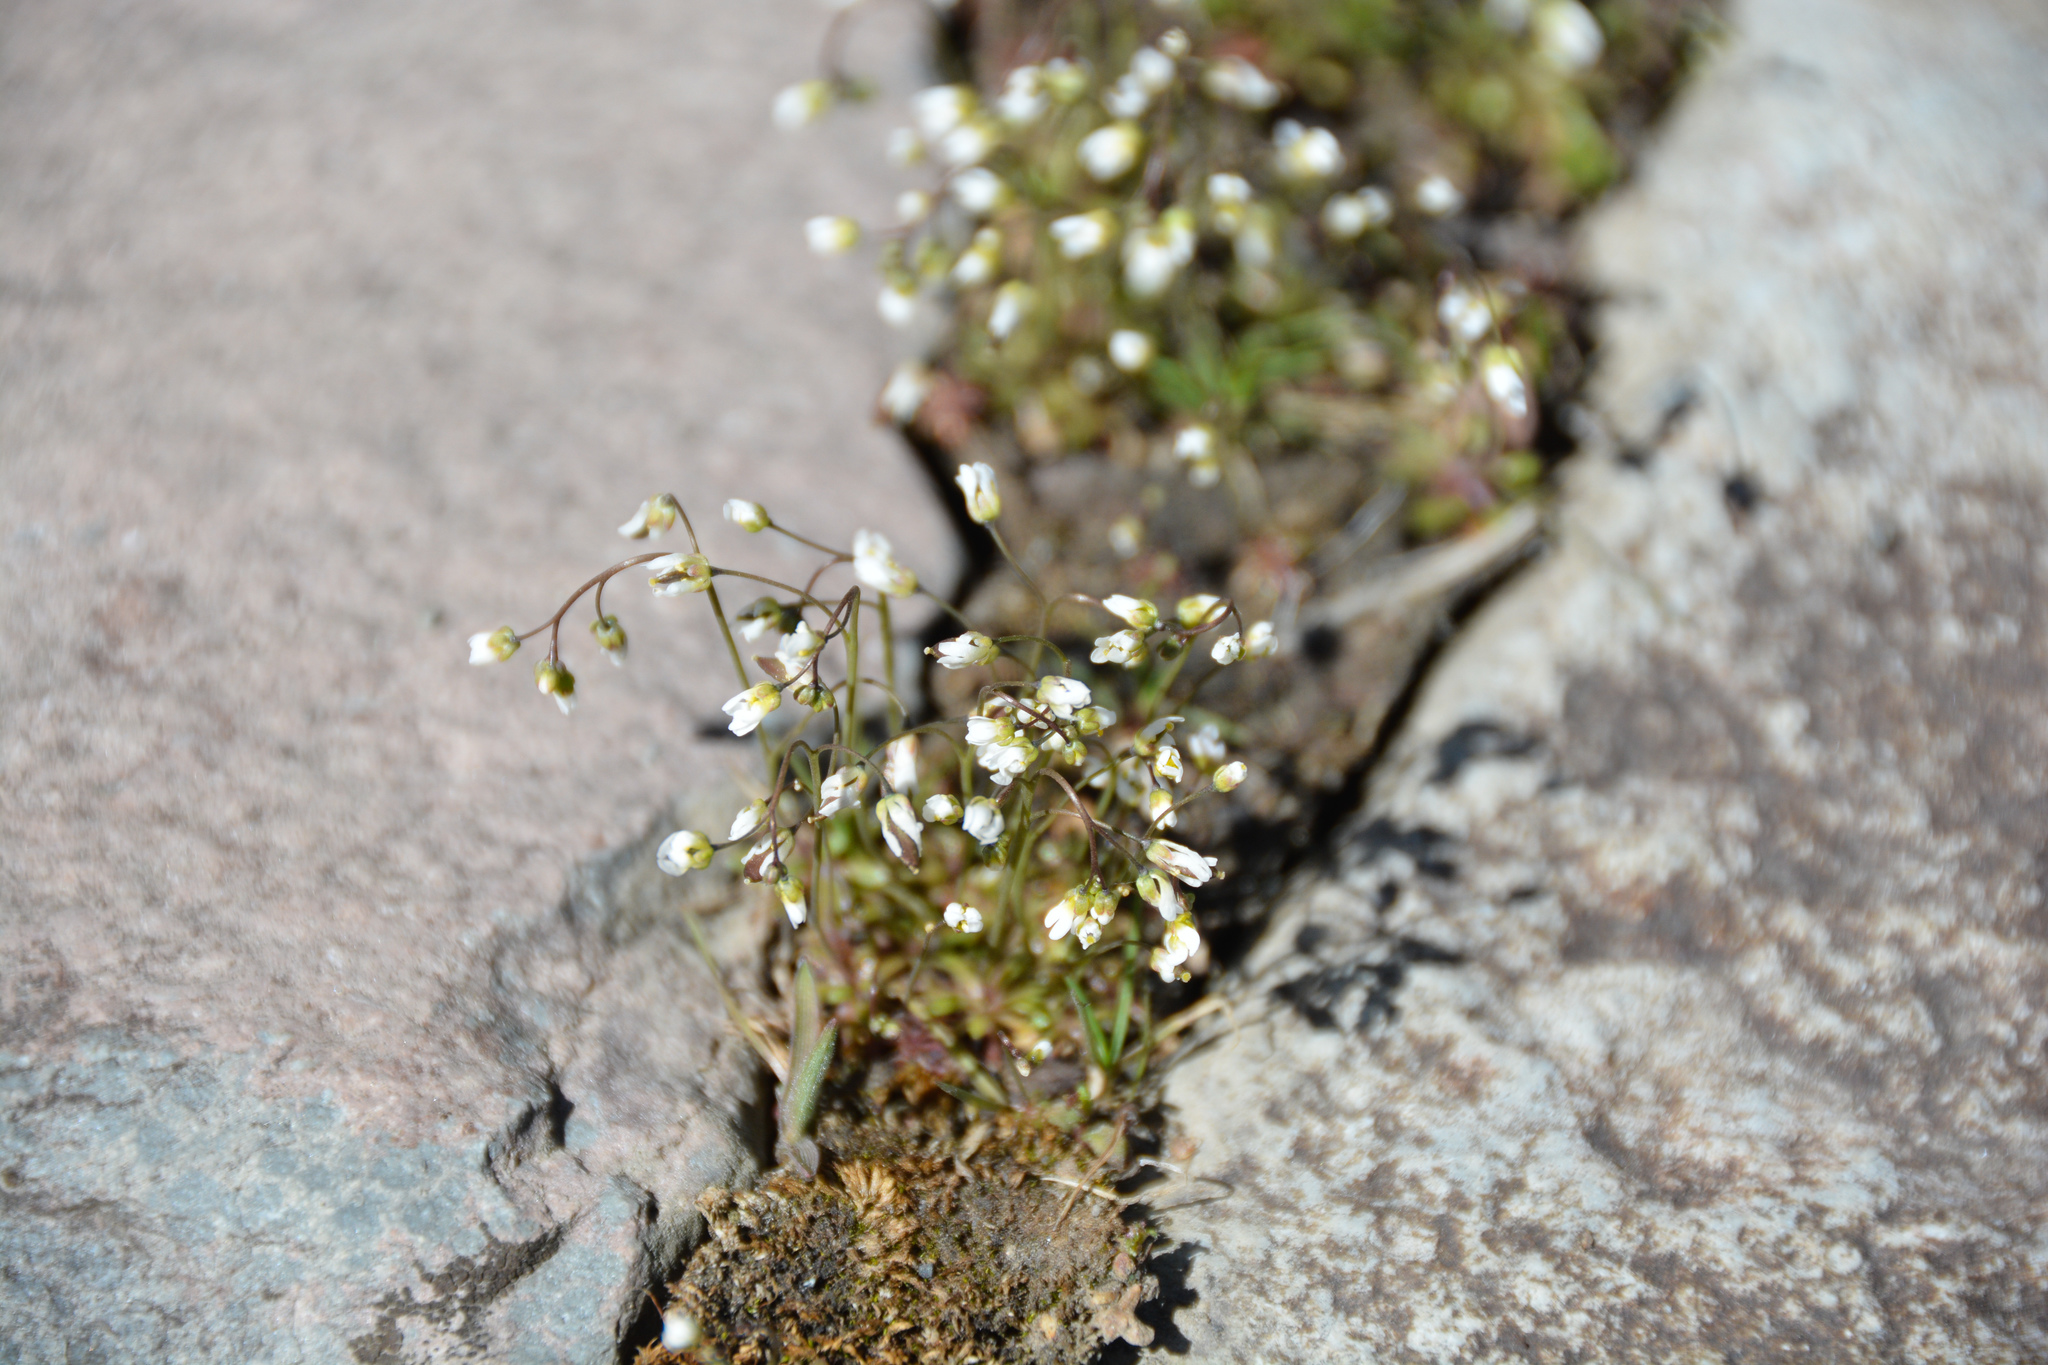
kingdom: Plantae
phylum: Tracheophyta
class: Magnoliopsida
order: Brassicales
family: Brassicaceae
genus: Draba
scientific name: Draba verna
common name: Spring draba
